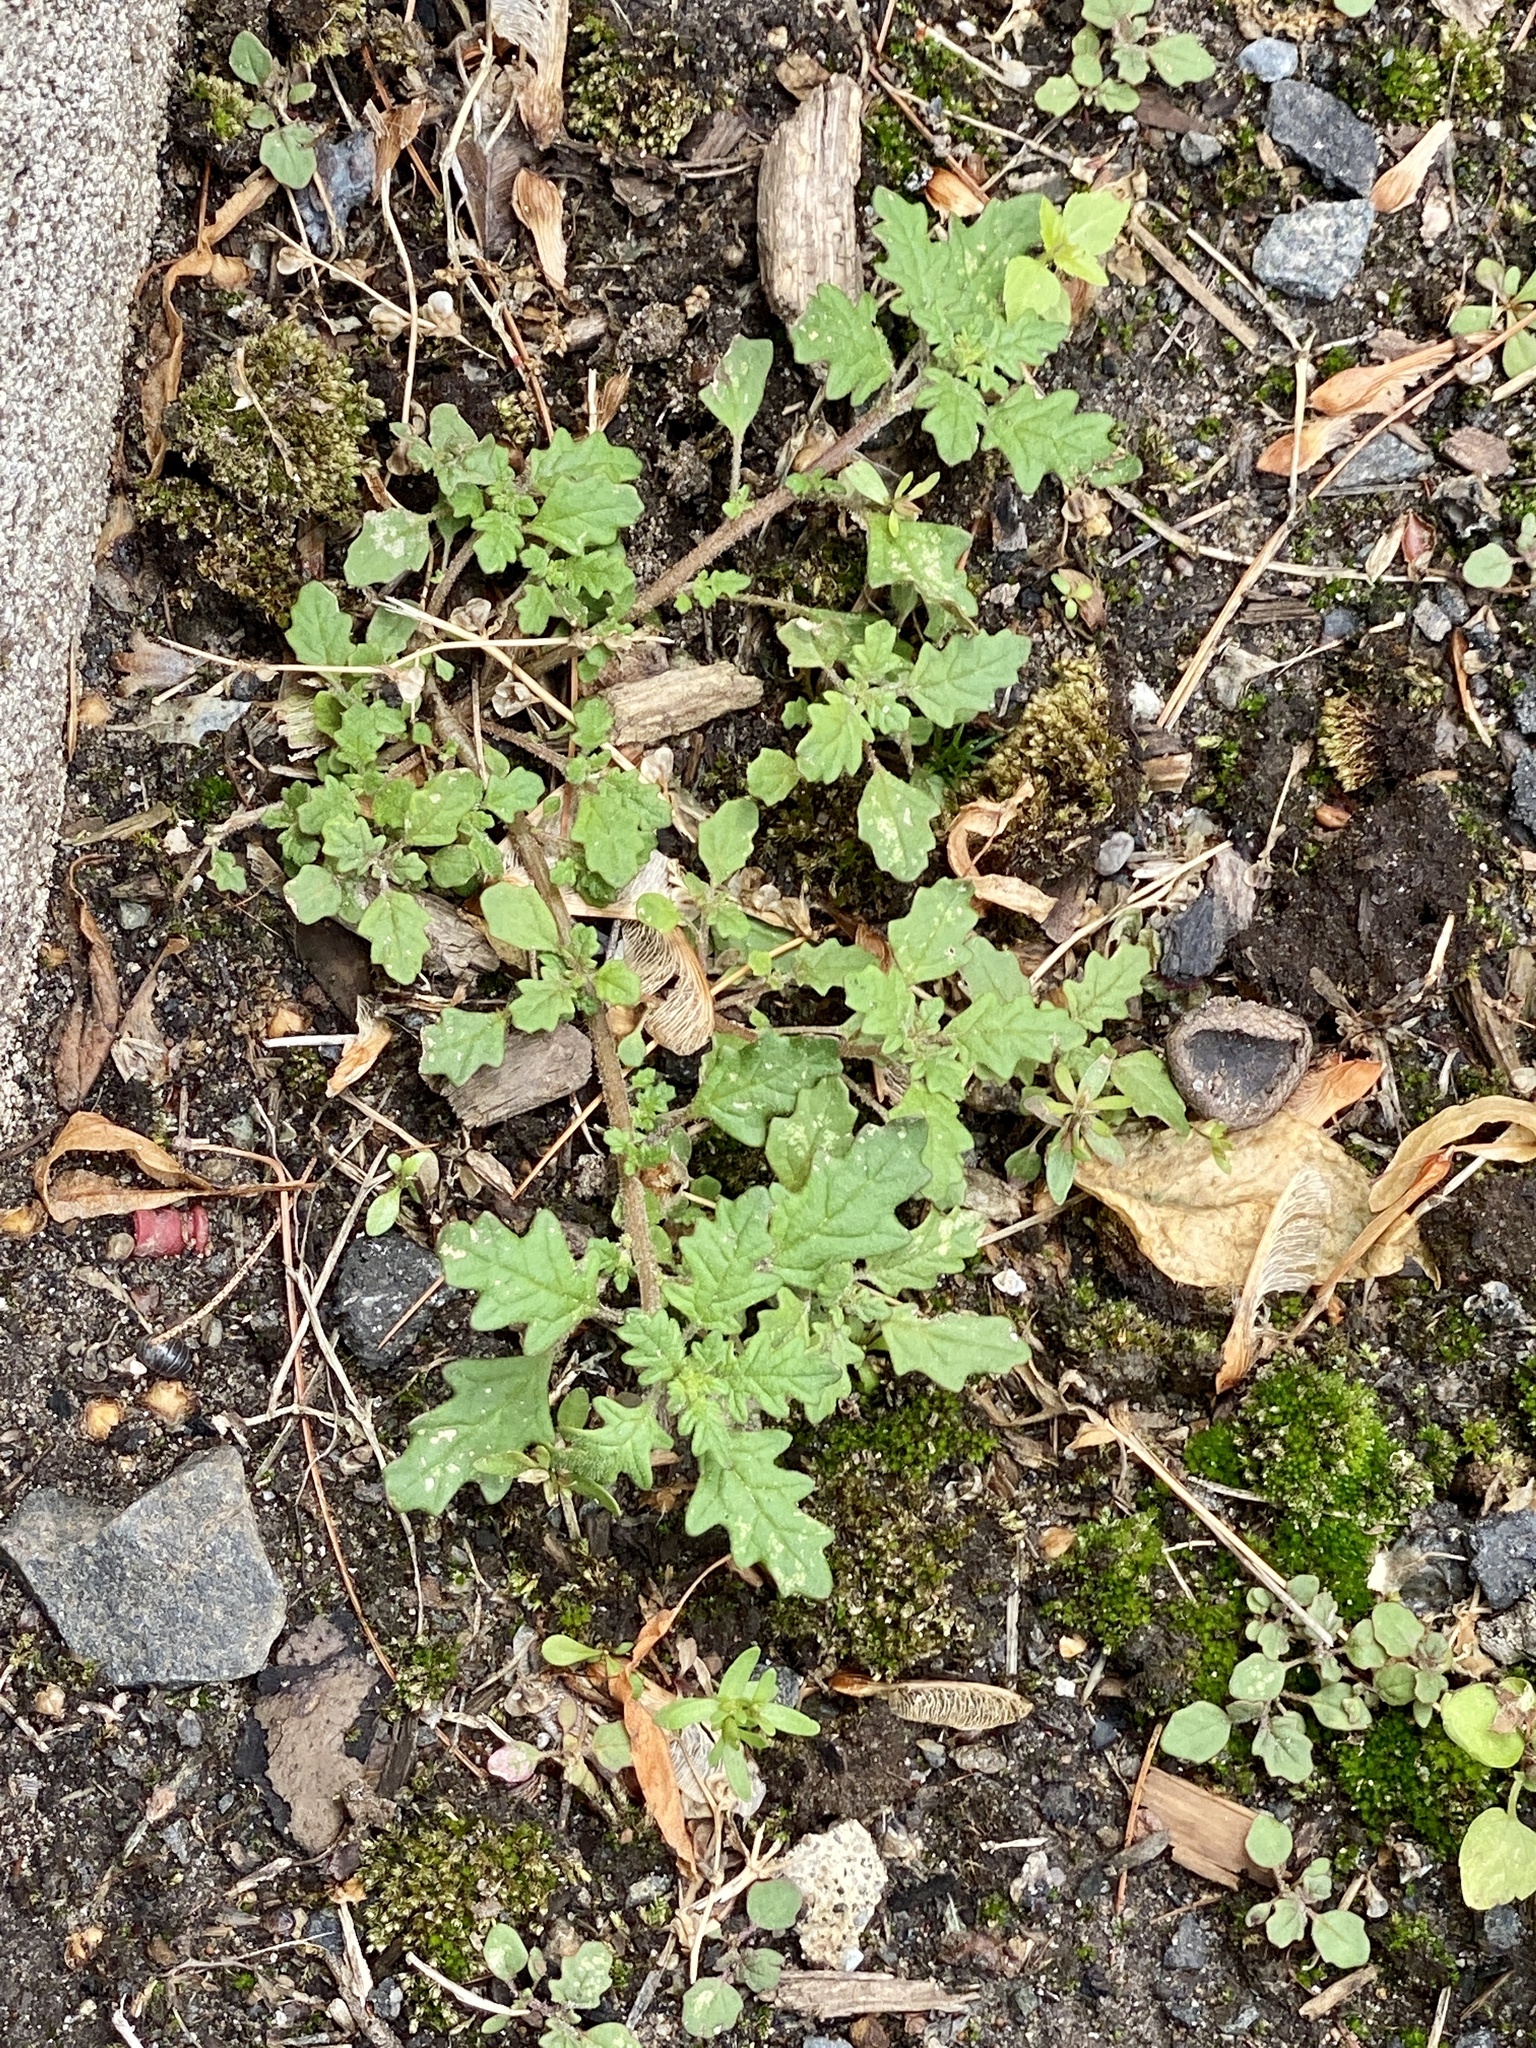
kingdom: Plantae
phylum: Tracheophyta
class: Magnoliopsida
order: Caryophyllales
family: Amaranthaceae
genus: Dysphania
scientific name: Dysphania pumilio
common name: Clammy goosefoot
